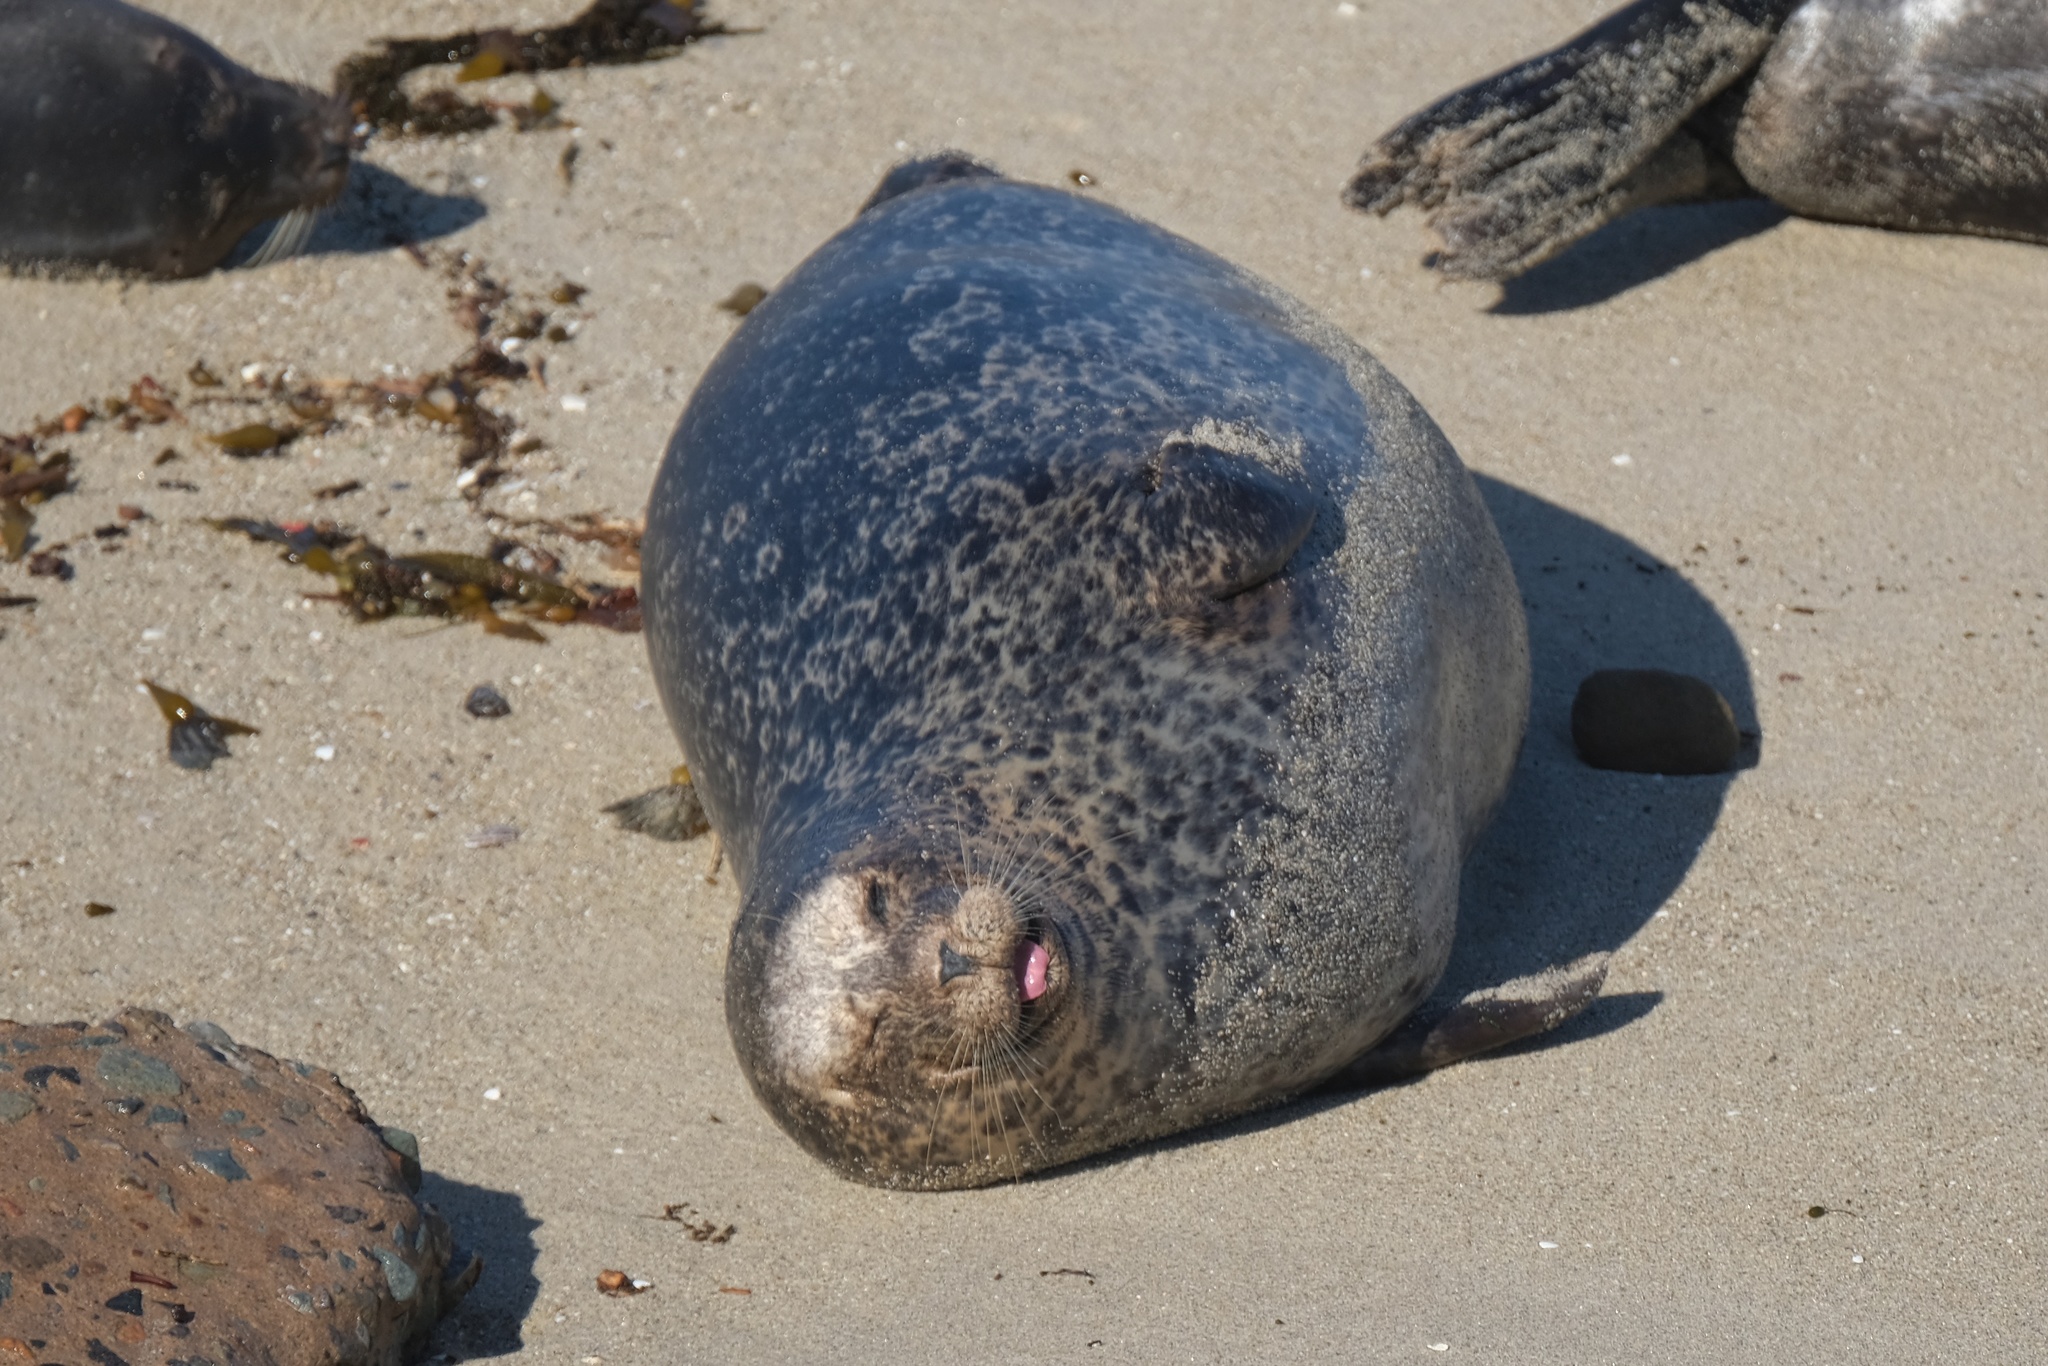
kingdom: Animalia
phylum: Chordata
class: Mammalia
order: Carnivora
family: Phocidae
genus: Phoca
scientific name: Phoca vitulina
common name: Harbor seal
